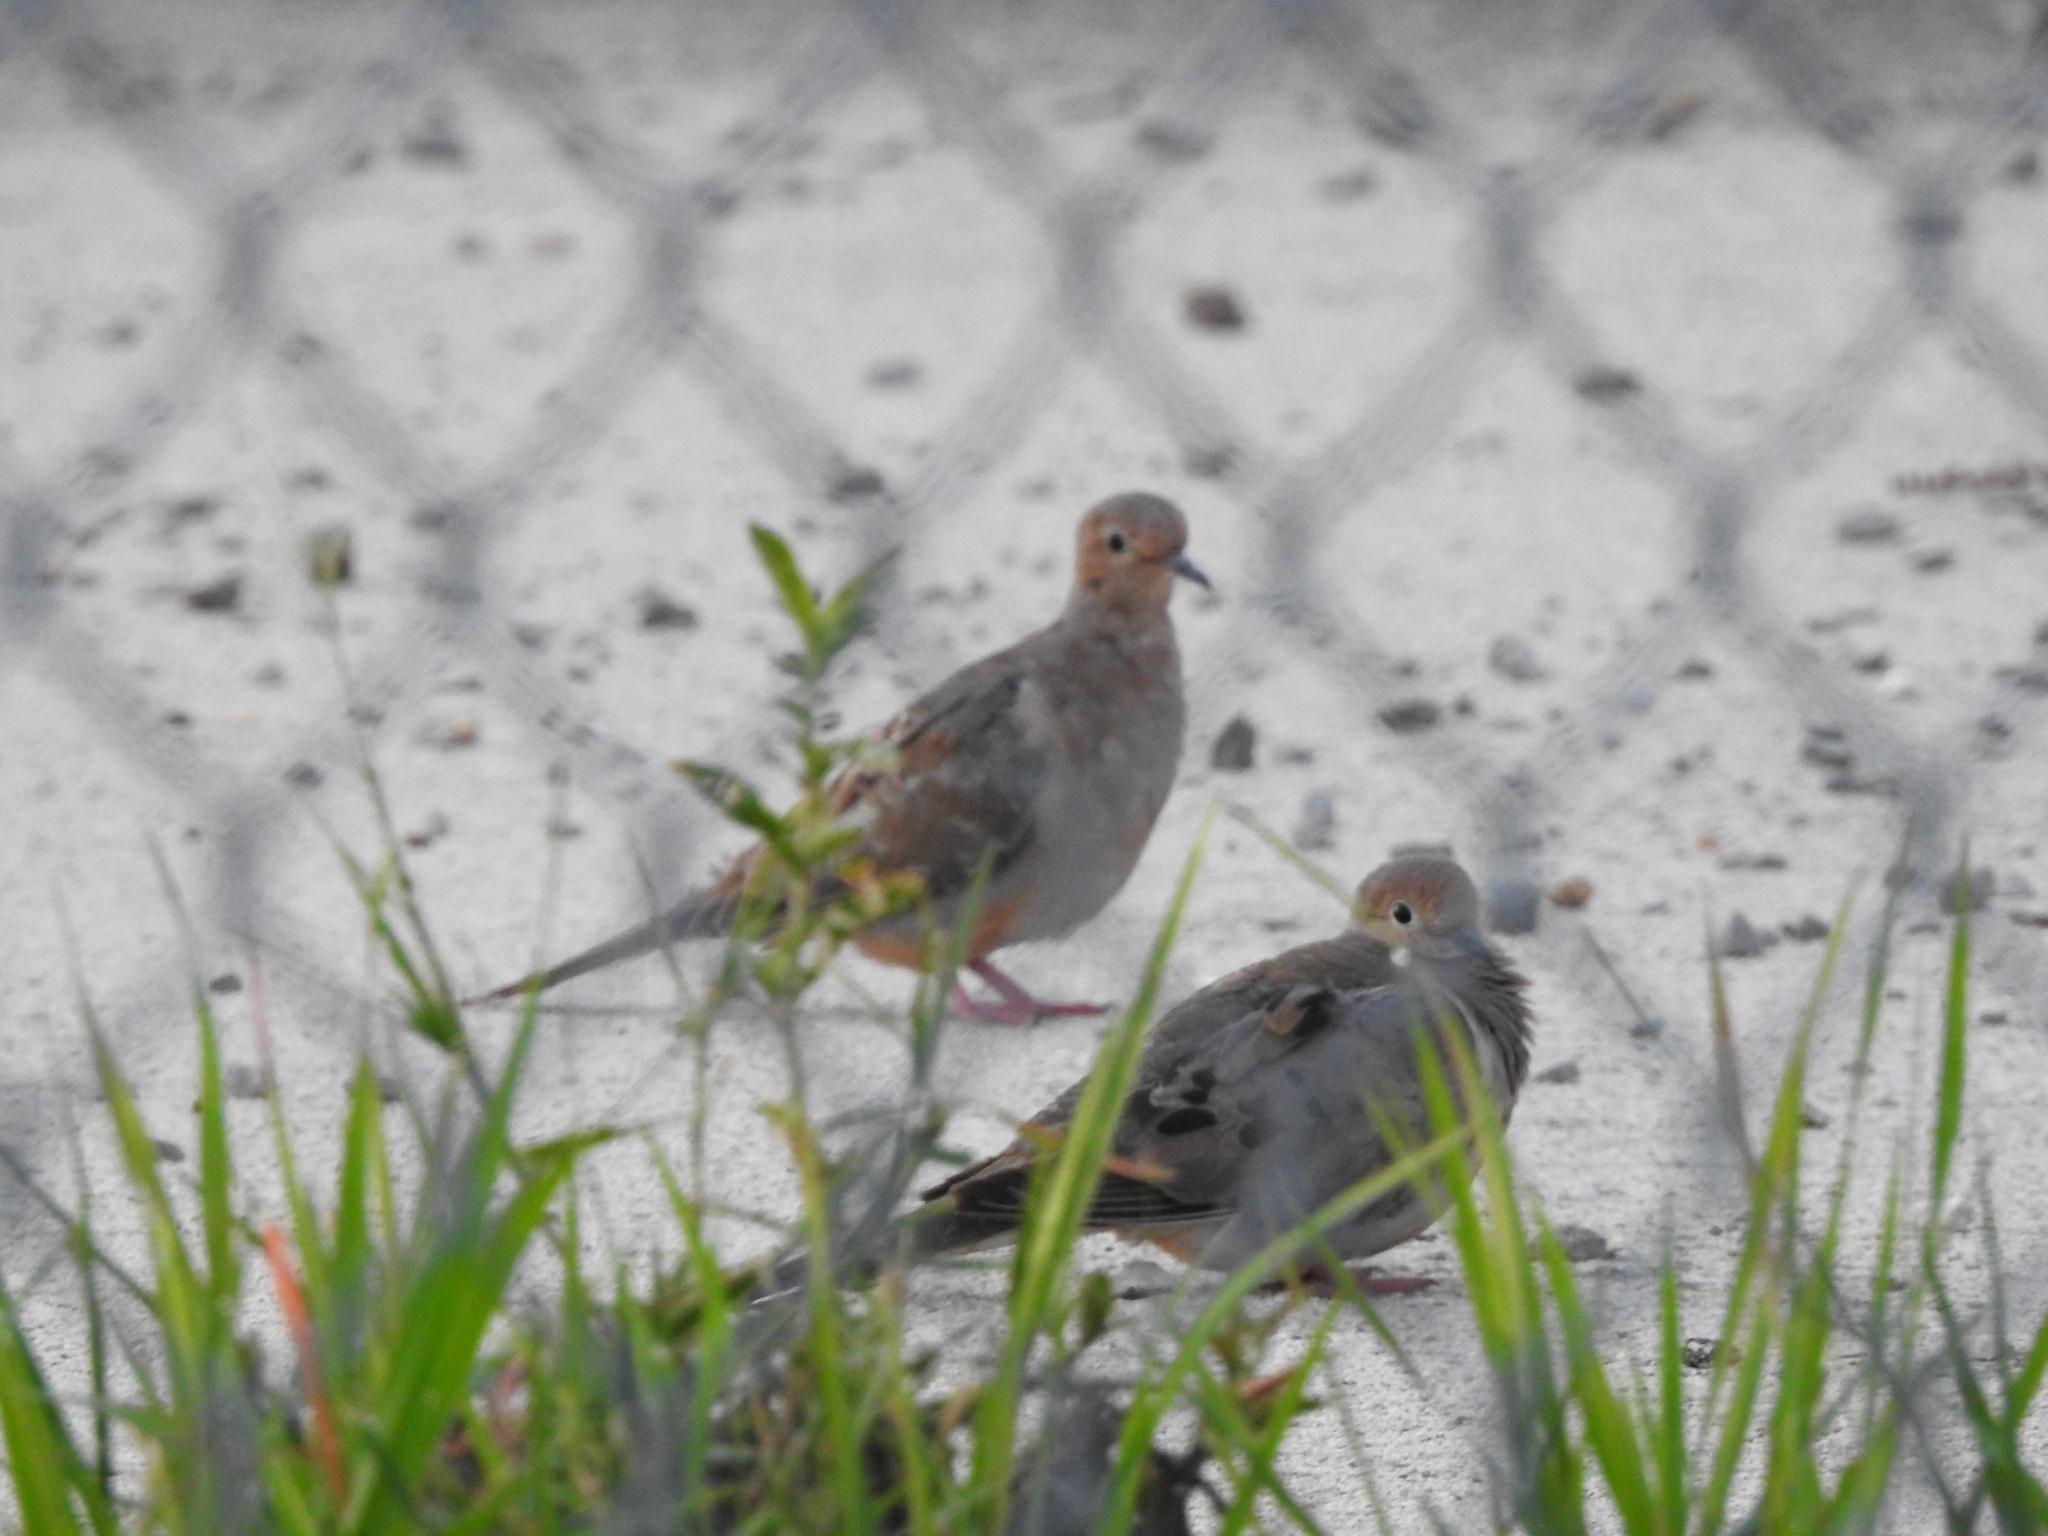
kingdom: Animalia
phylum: Chordata
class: Aves
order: Columbiformes
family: Columbidae
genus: Zenaida
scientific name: Zenaida macroura
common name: Mourning dove
